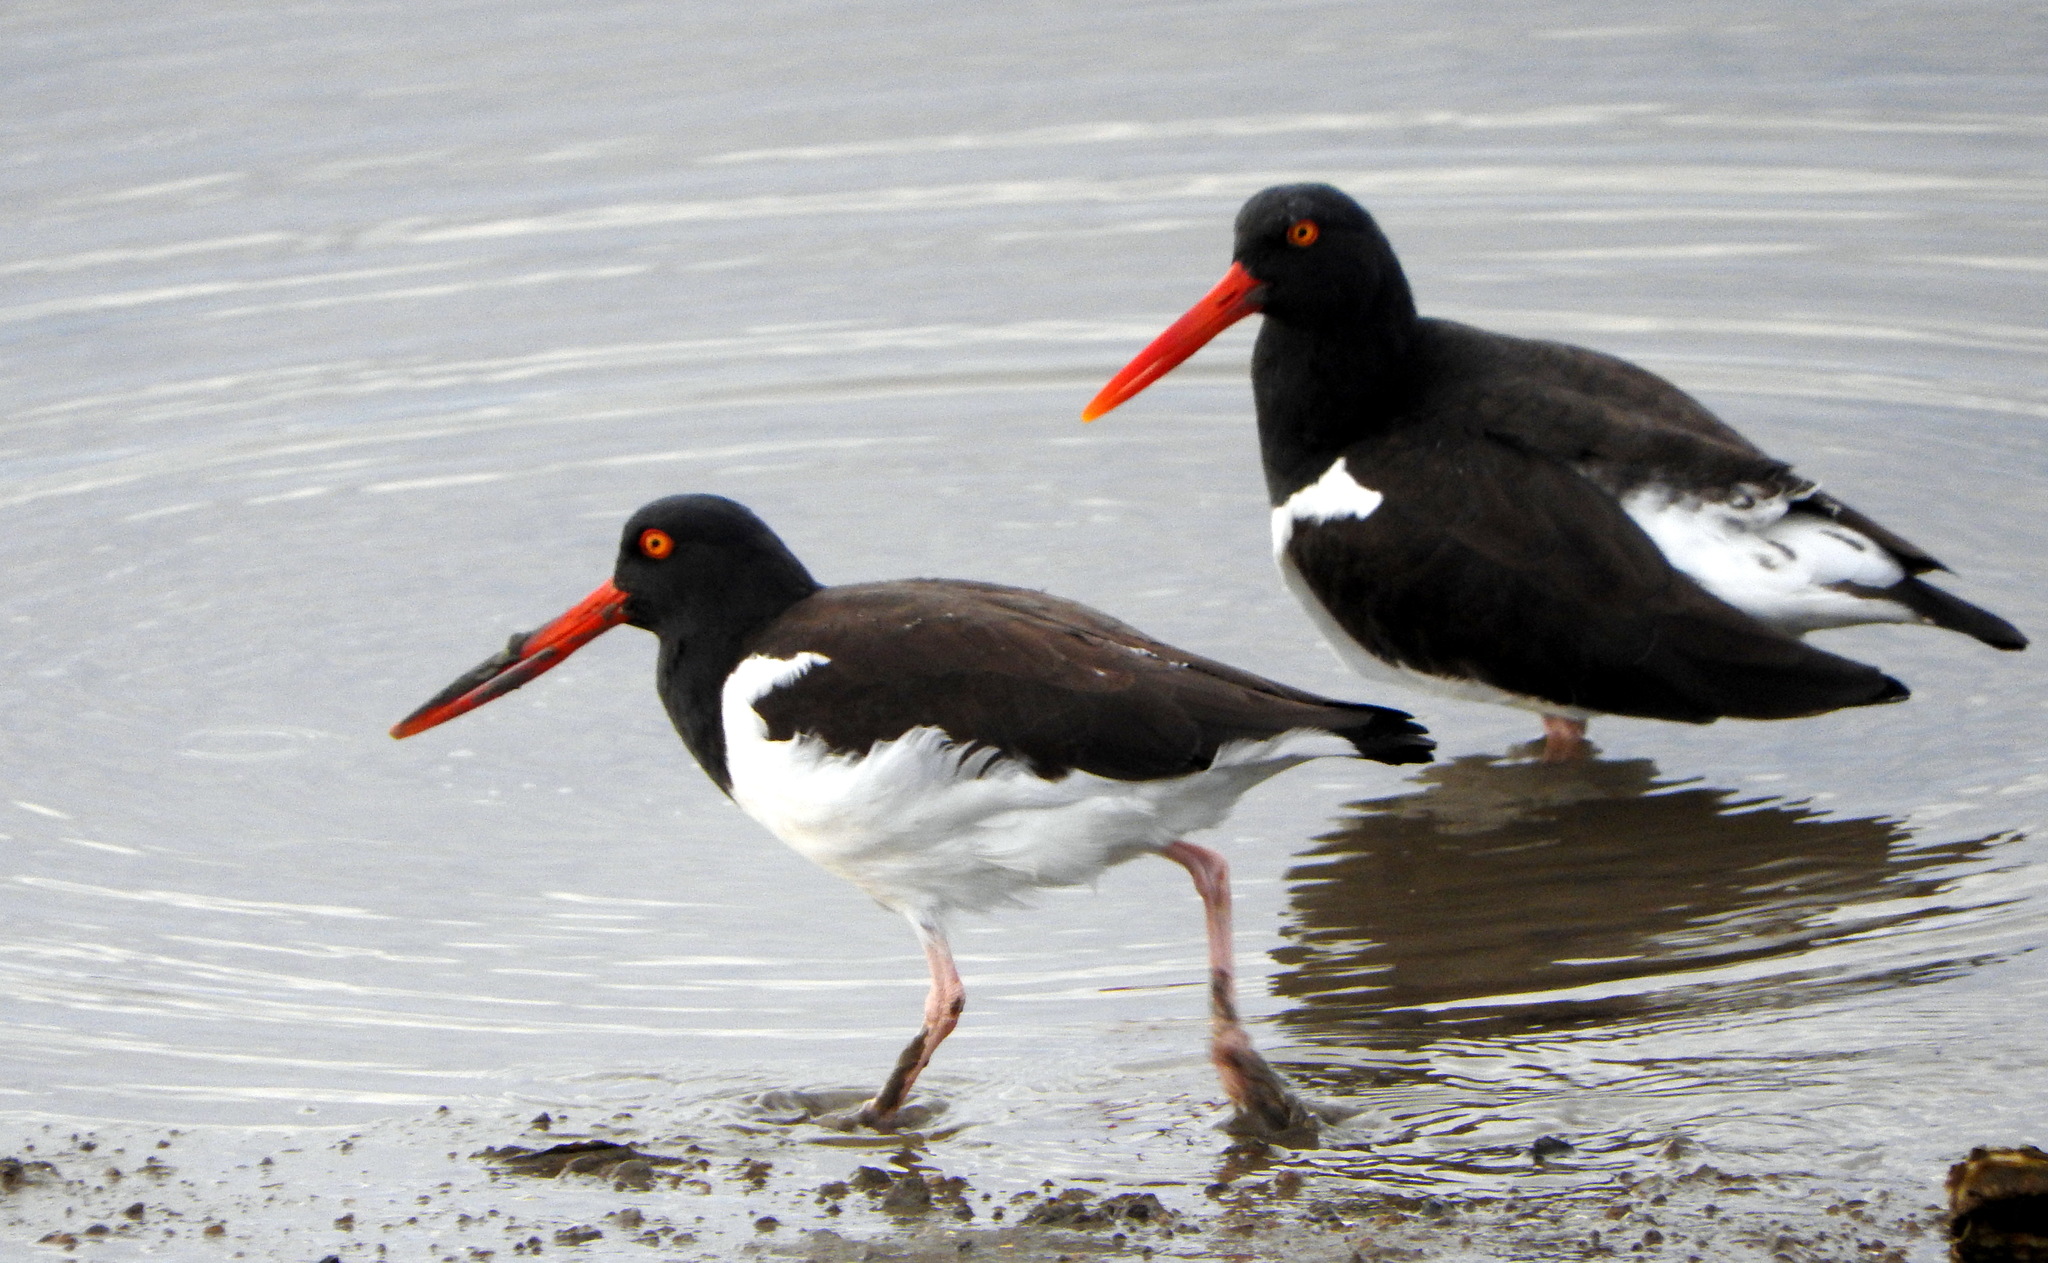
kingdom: Animalia
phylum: Chordata
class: Aves
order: Charadriiformes
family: Haematopodidae
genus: Haematopus
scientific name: Haematopus palliatus
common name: American oystercatcher
